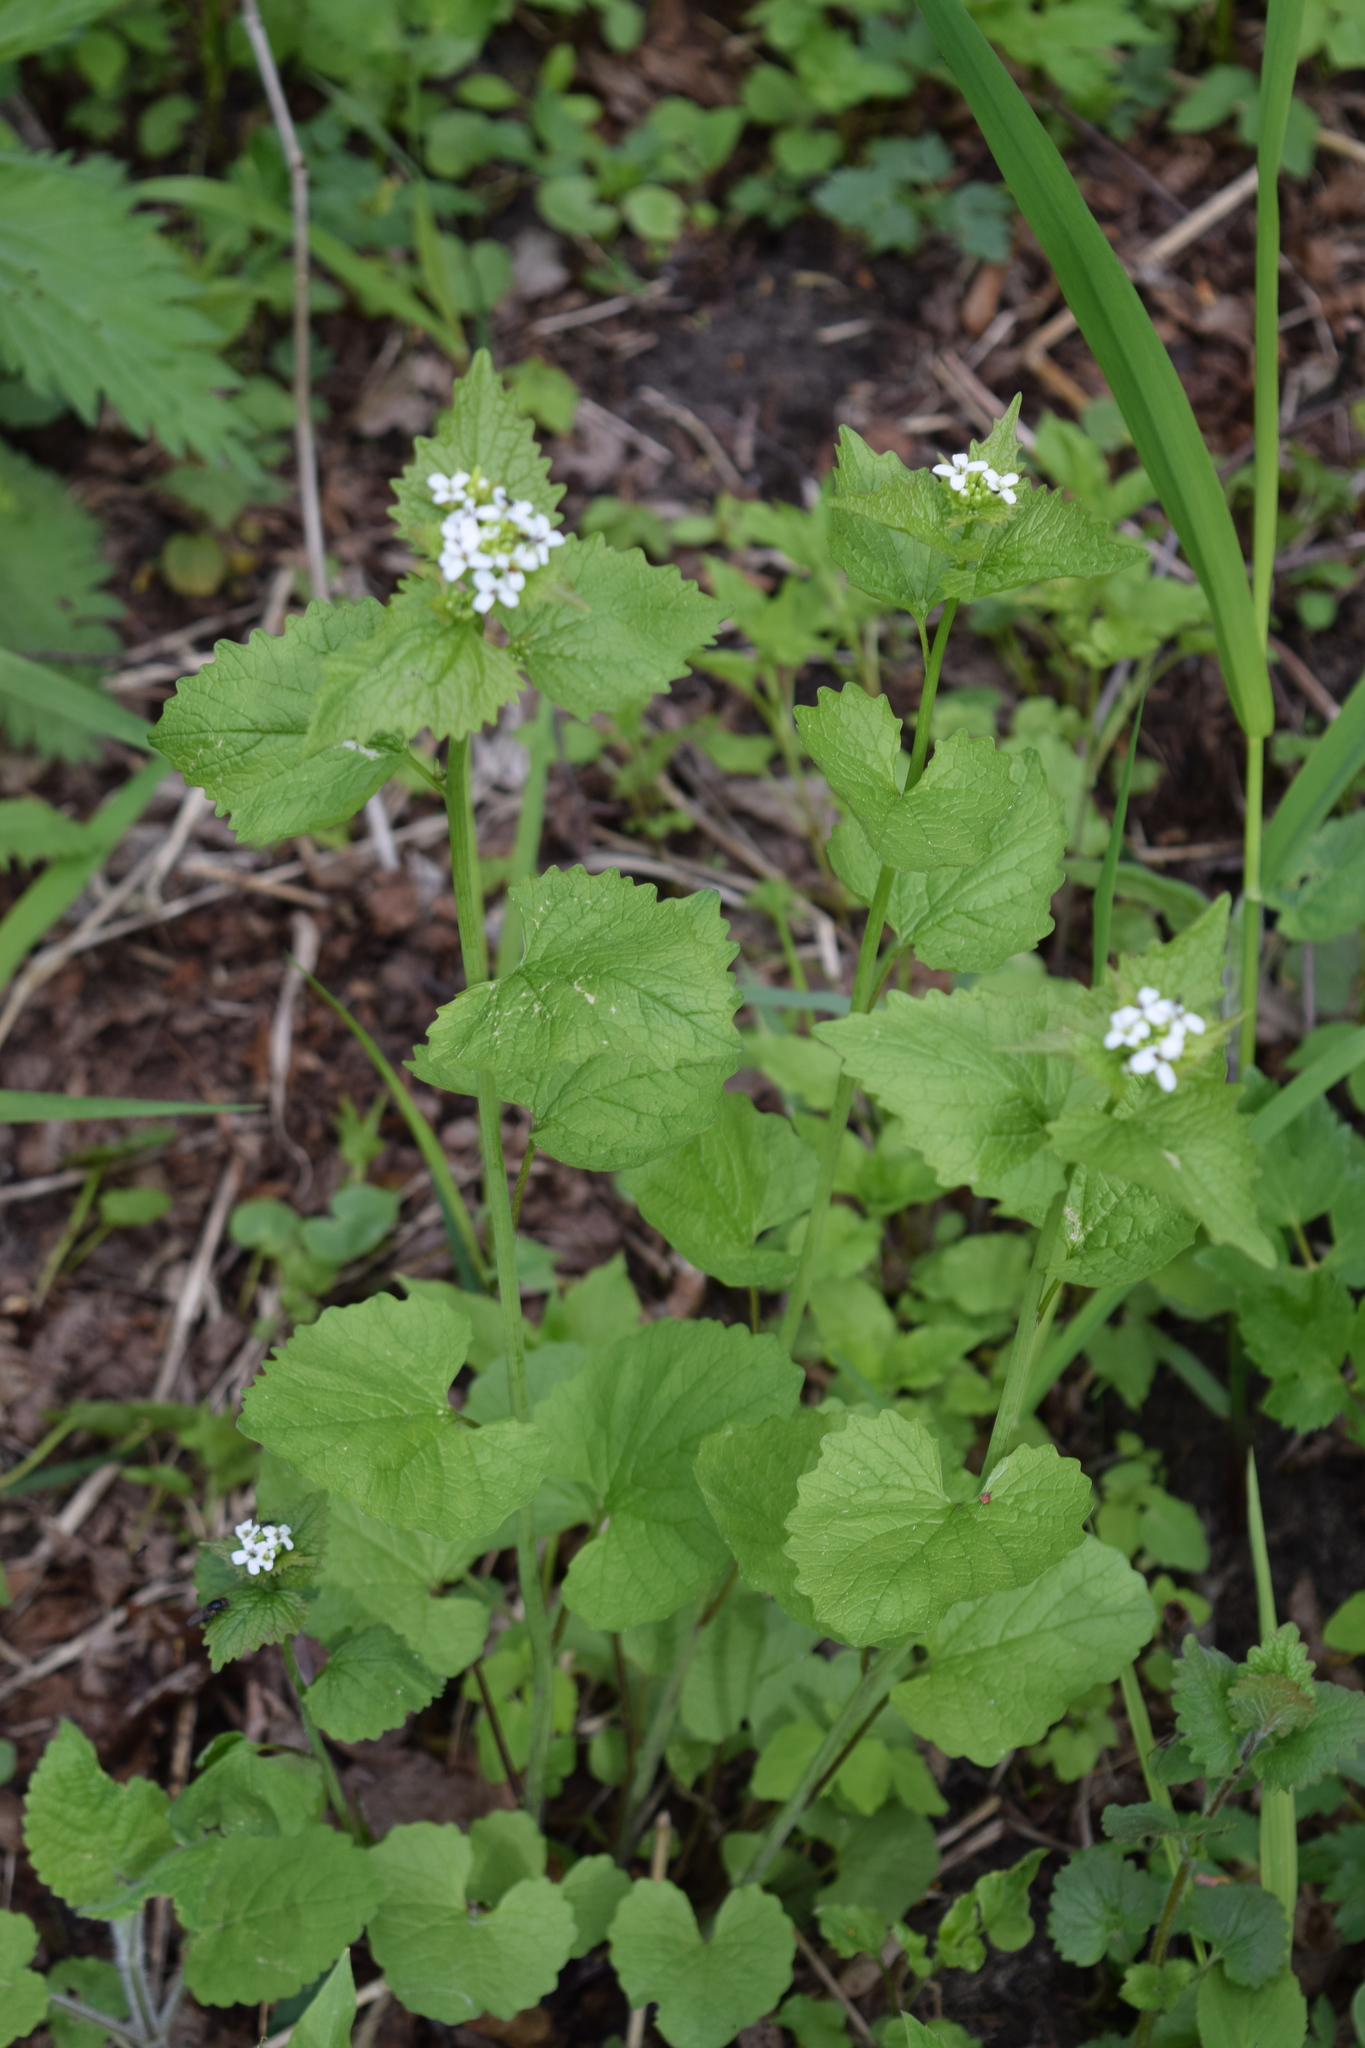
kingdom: Plantae
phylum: Tracheophyta
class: Magnoliopsida
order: Brassicales
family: Brassicaceae
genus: Alliaria
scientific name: Alliaria petiolata
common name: Garlic mustard
